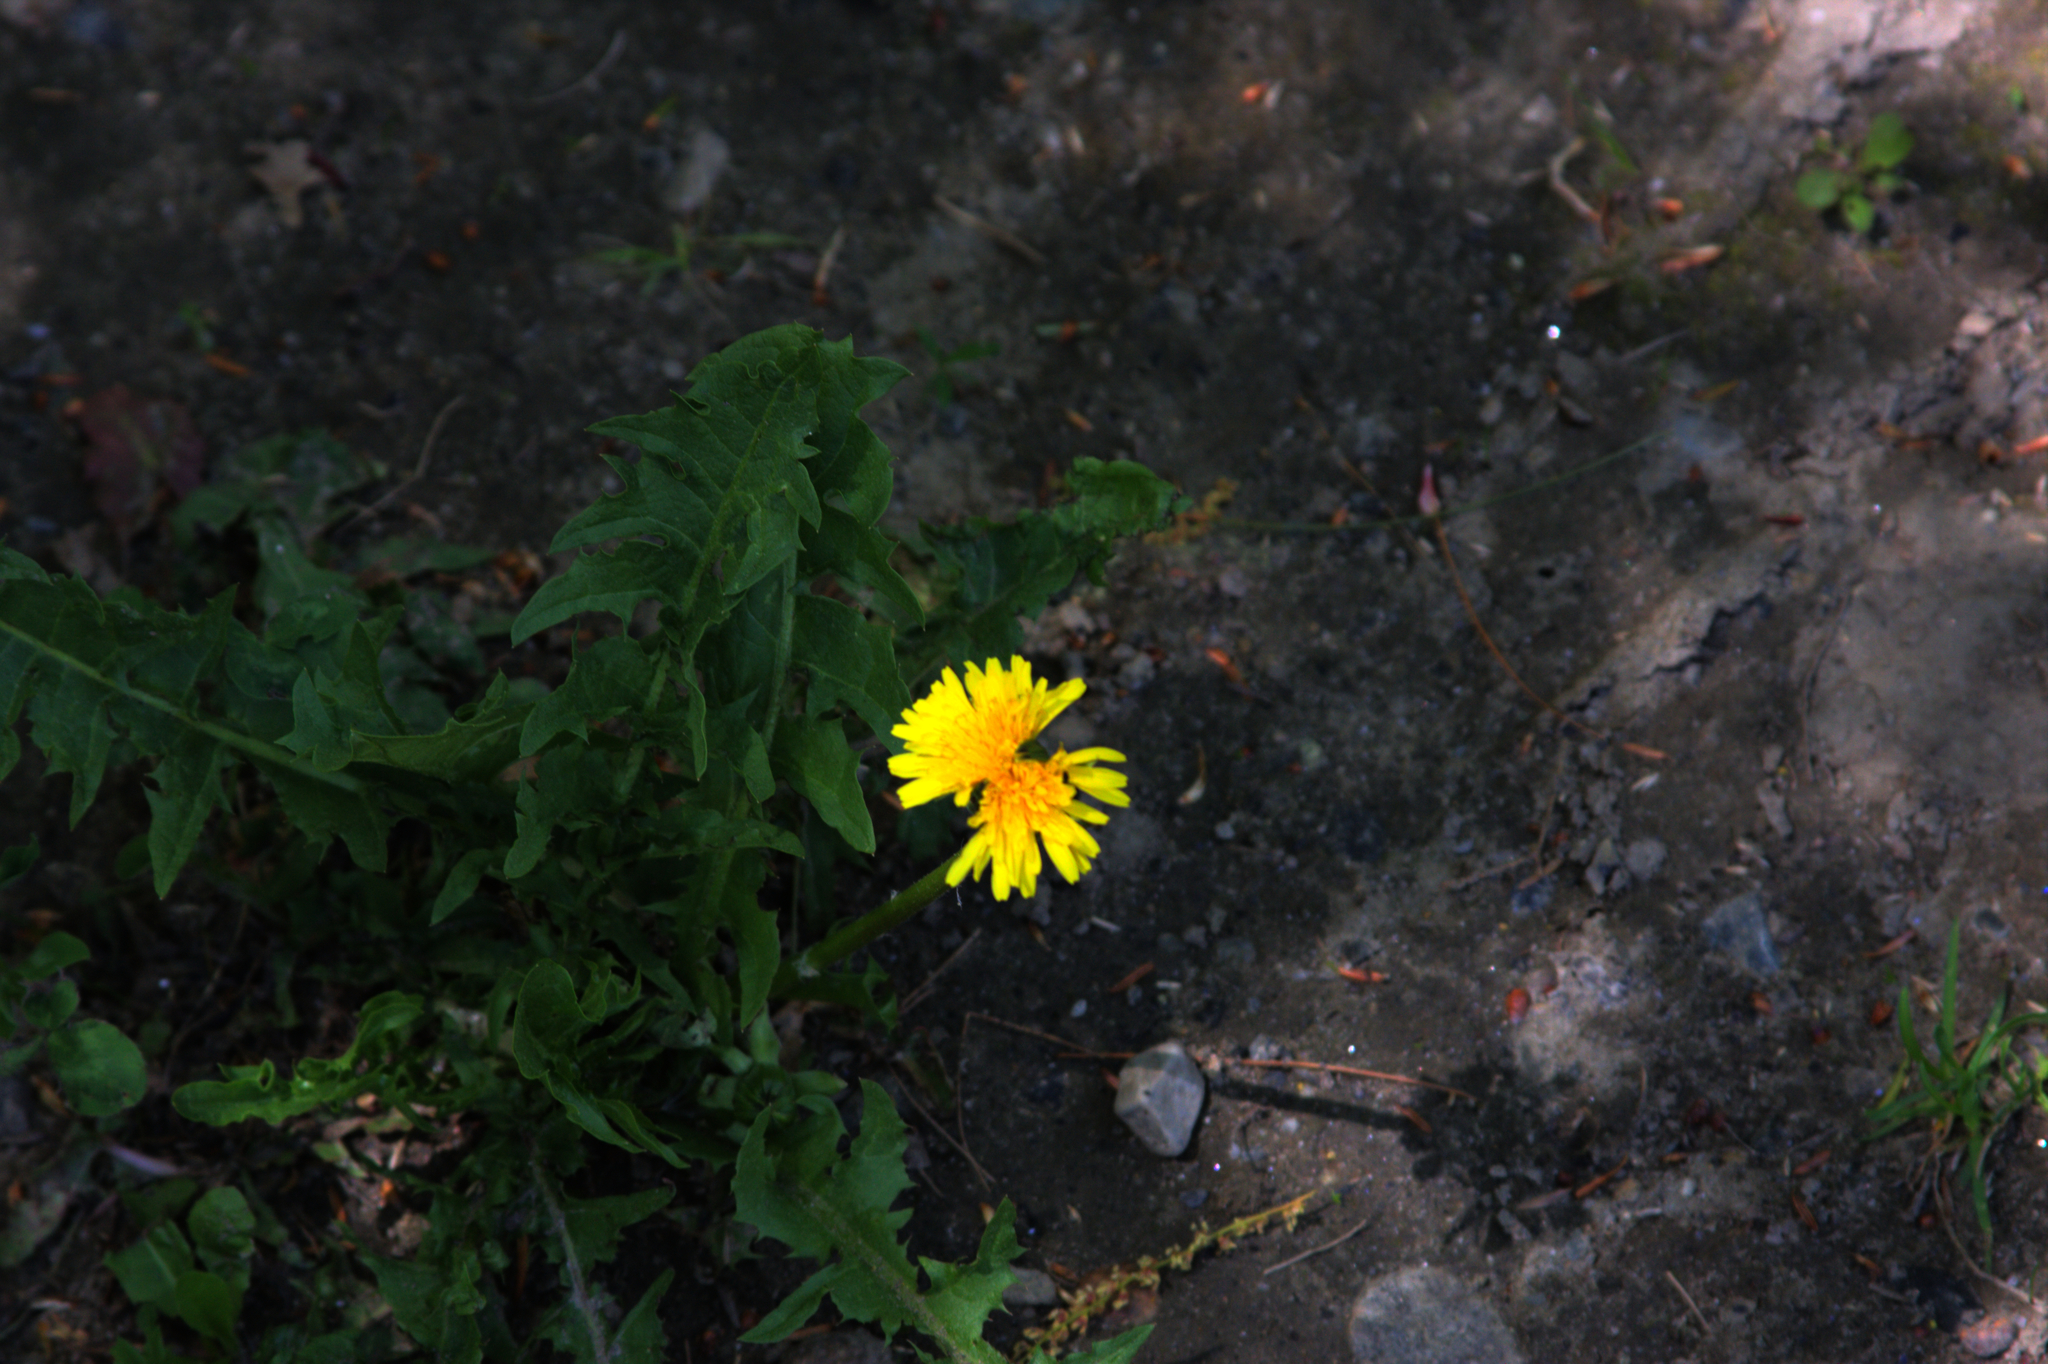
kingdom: Plantae
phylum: Tracheophyta
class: Magnoliopsida
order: Asterales
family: Asteraceae
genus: Taraxacum
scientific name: Taraxacum officinale
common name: Common dandelion
